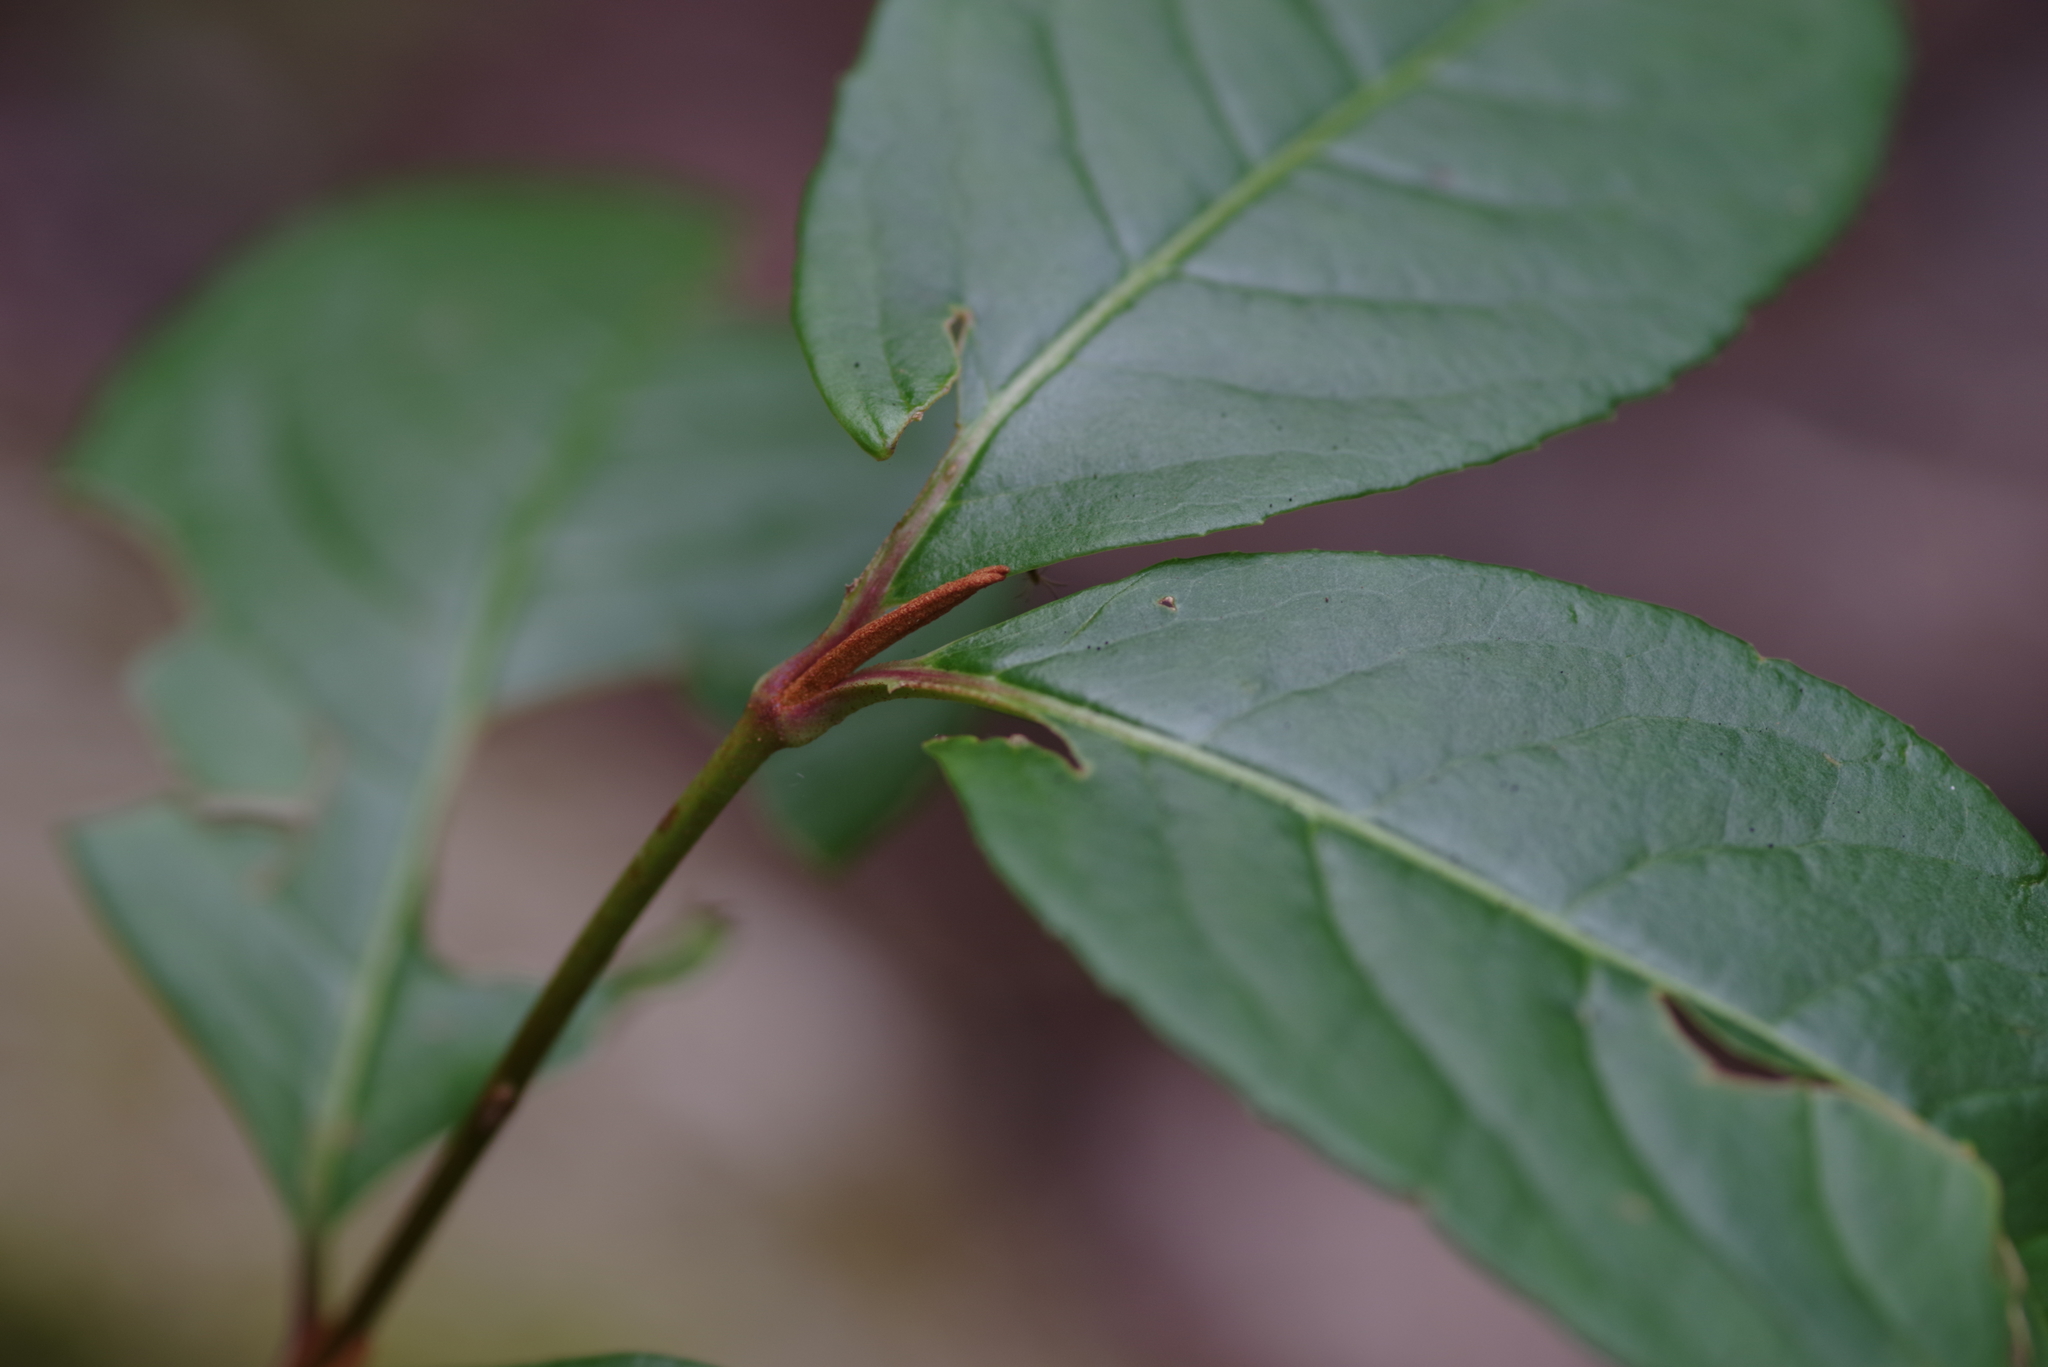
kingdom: Plantae
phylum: Tracheophyta
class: Magnoliopsida
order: Dipsacales
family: Viburnaceae
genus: Viburnum
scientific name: Viburnum cassinoides
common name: Swamp haw
